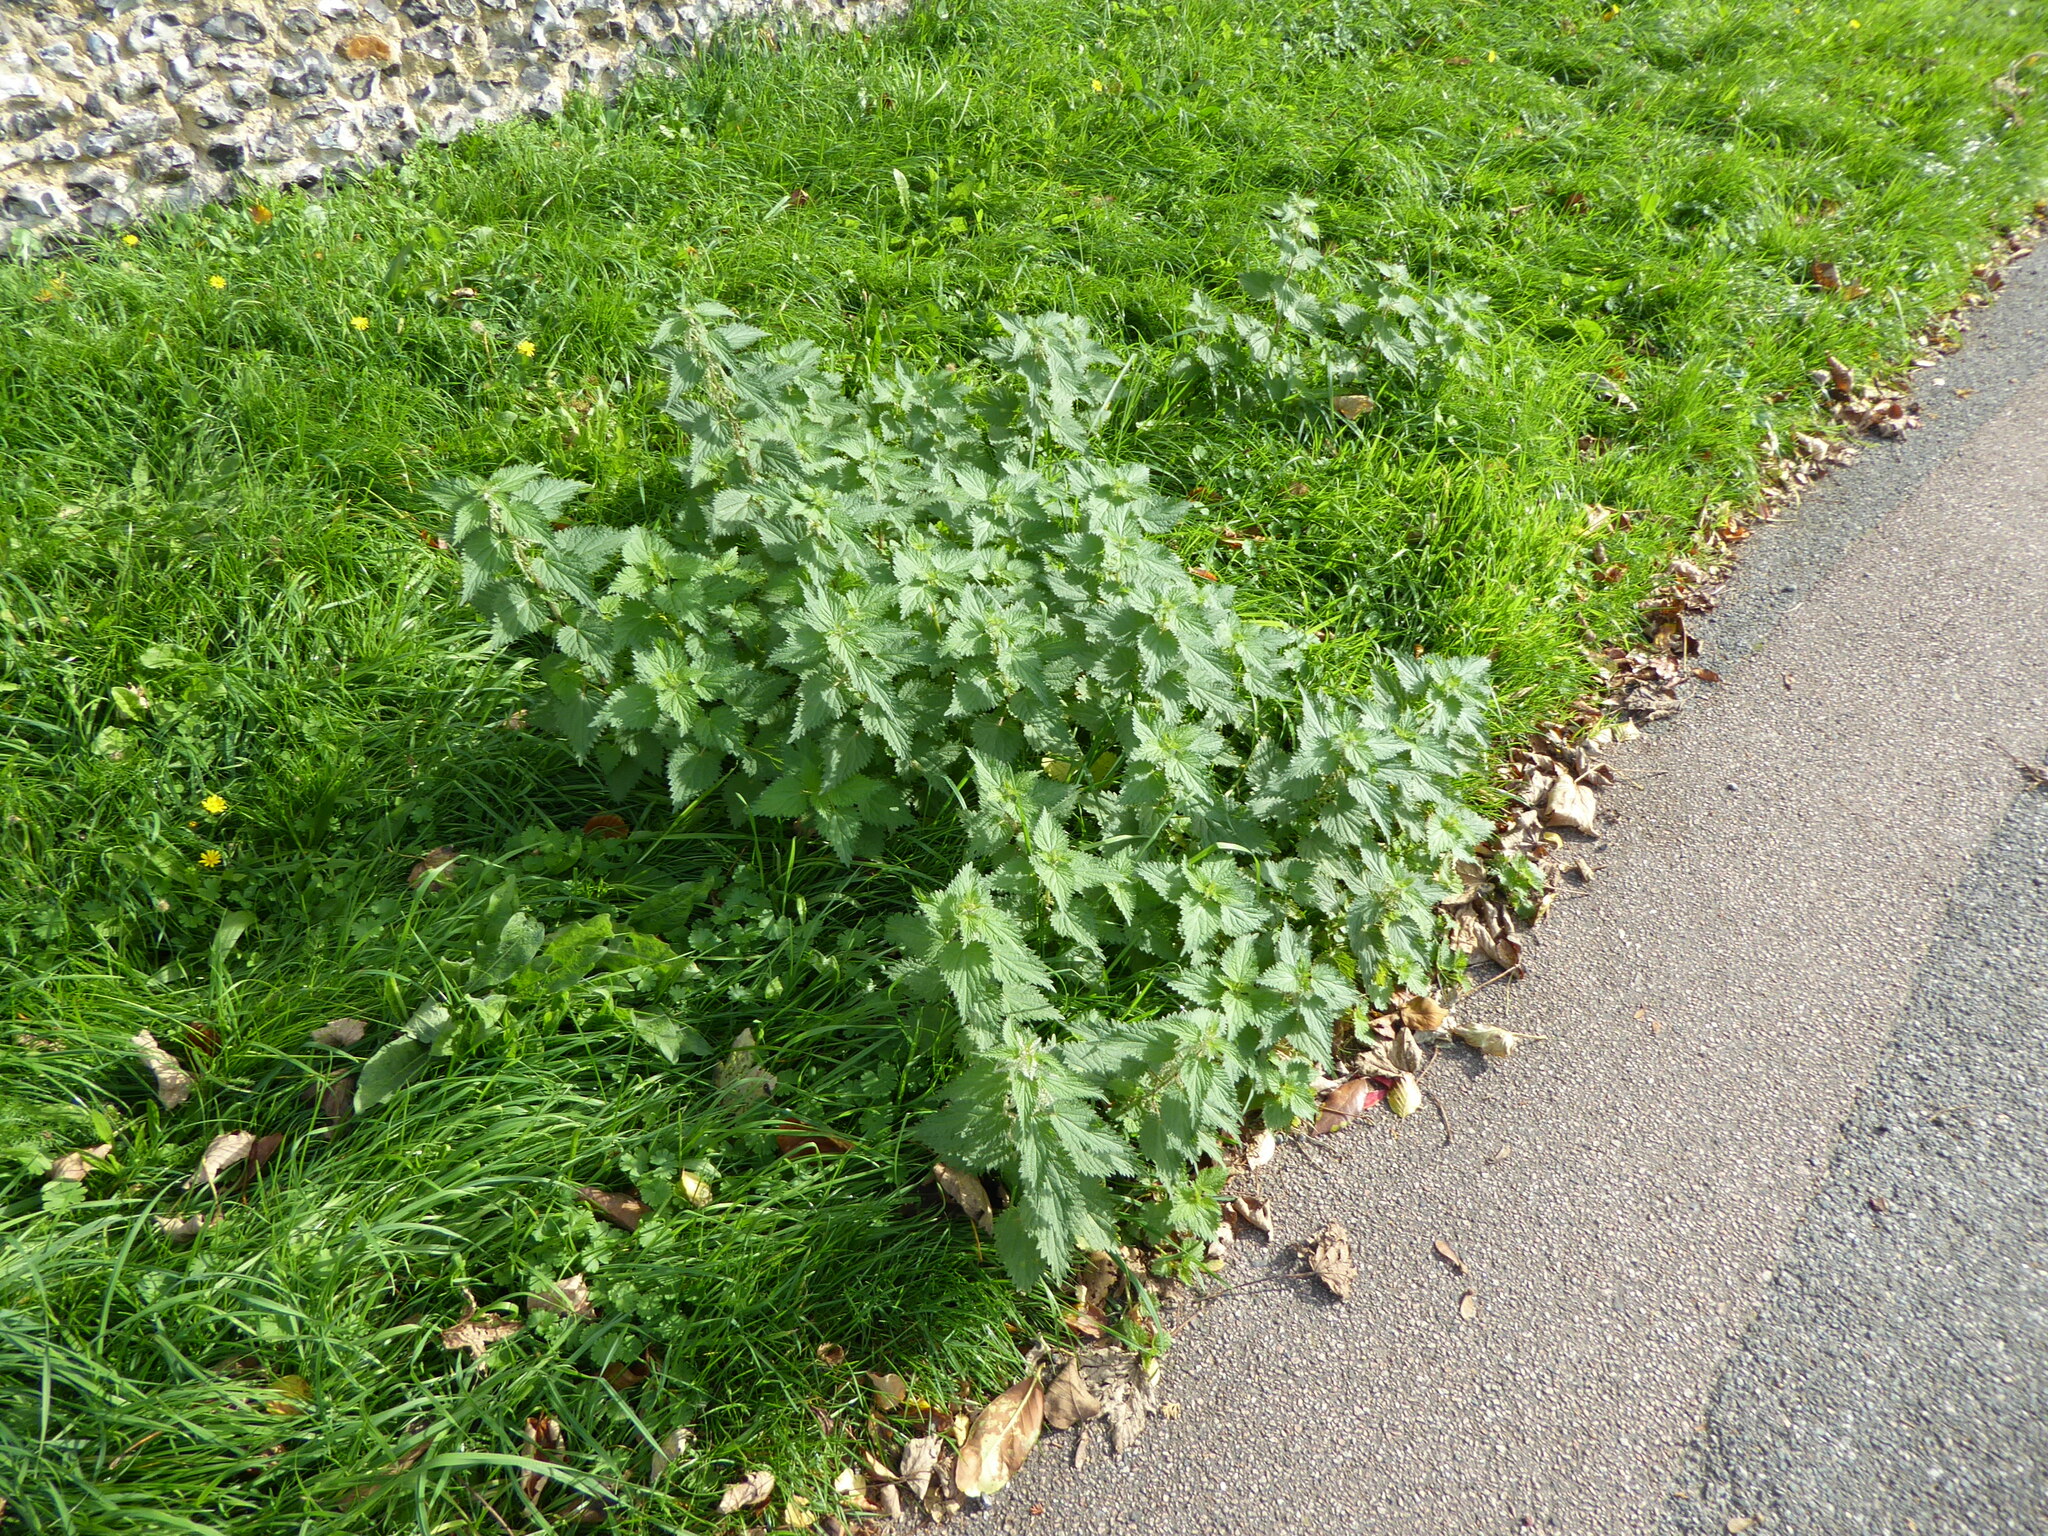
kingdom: Plantae
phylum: Tracheophyta
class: Magnoliopsida
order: Rosales
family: Urticaceae
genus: Urtica
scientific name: Urtica dioica
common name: Common nettle
